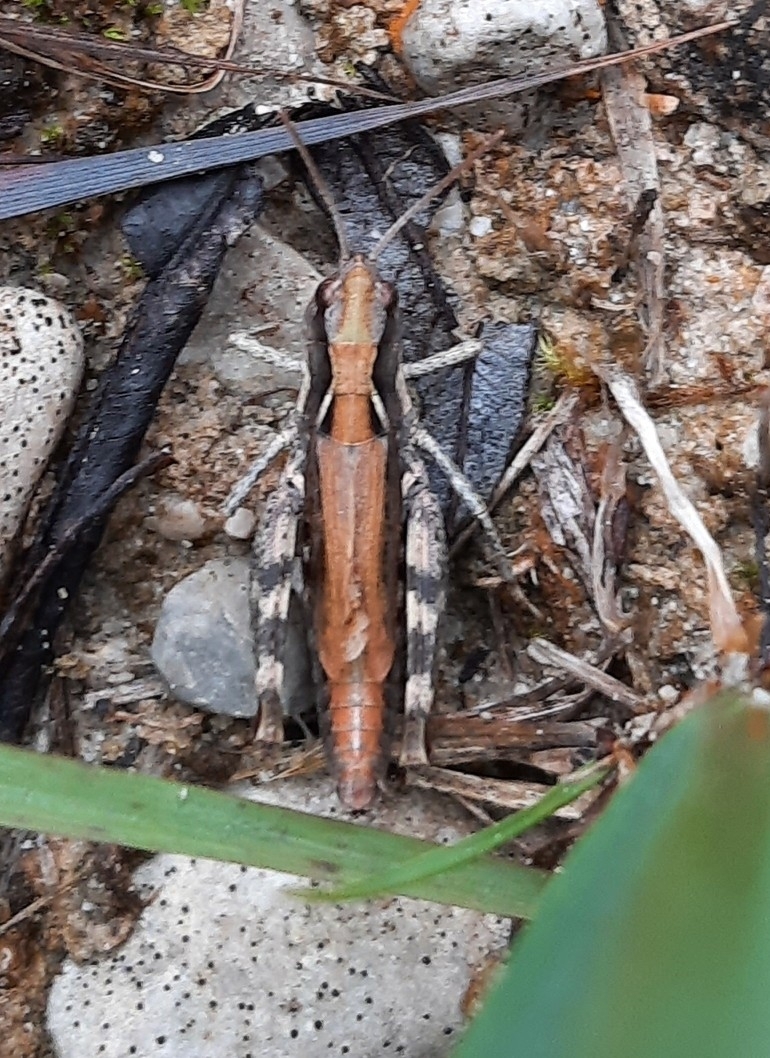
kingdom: Animalia
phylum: Arthropoda
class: Insecta
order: Orthoptera
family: Acrididae
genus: Chorthippus
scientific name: Chorthippus pullus
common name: Gravel grasshopper
